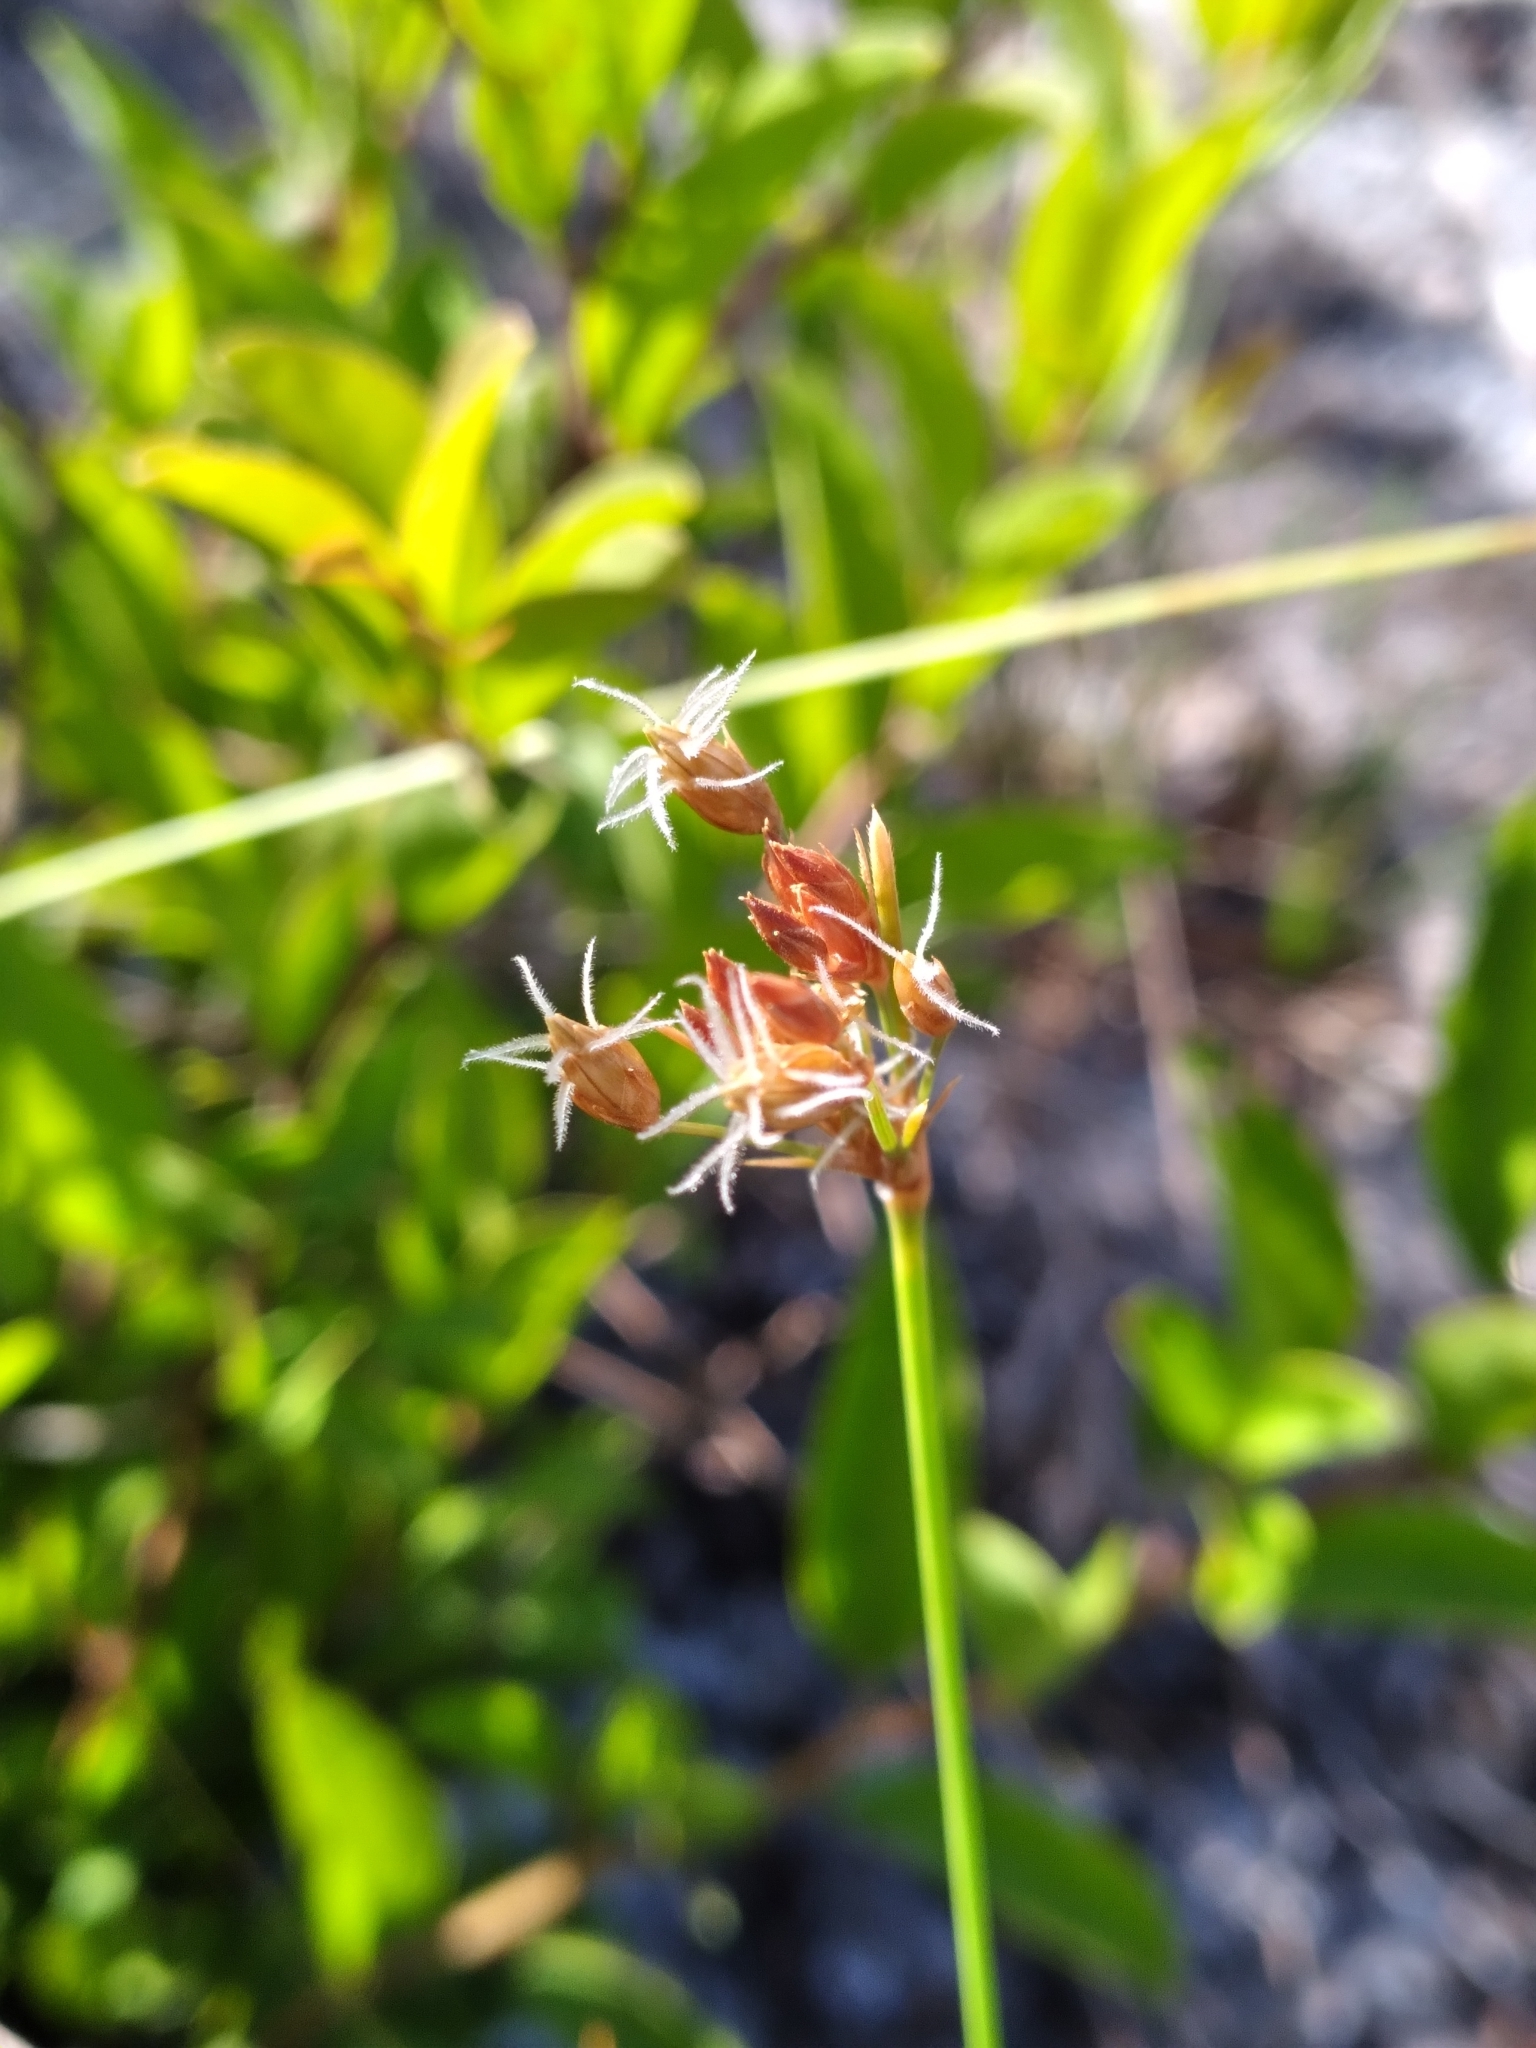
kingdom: Plantae
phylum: Tracheophyta
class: Liliopsida
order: Poales
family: Cyperaceae
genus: Fimbristylis
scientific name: Fimbristylis puberula
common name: Hairy fimbristylis
